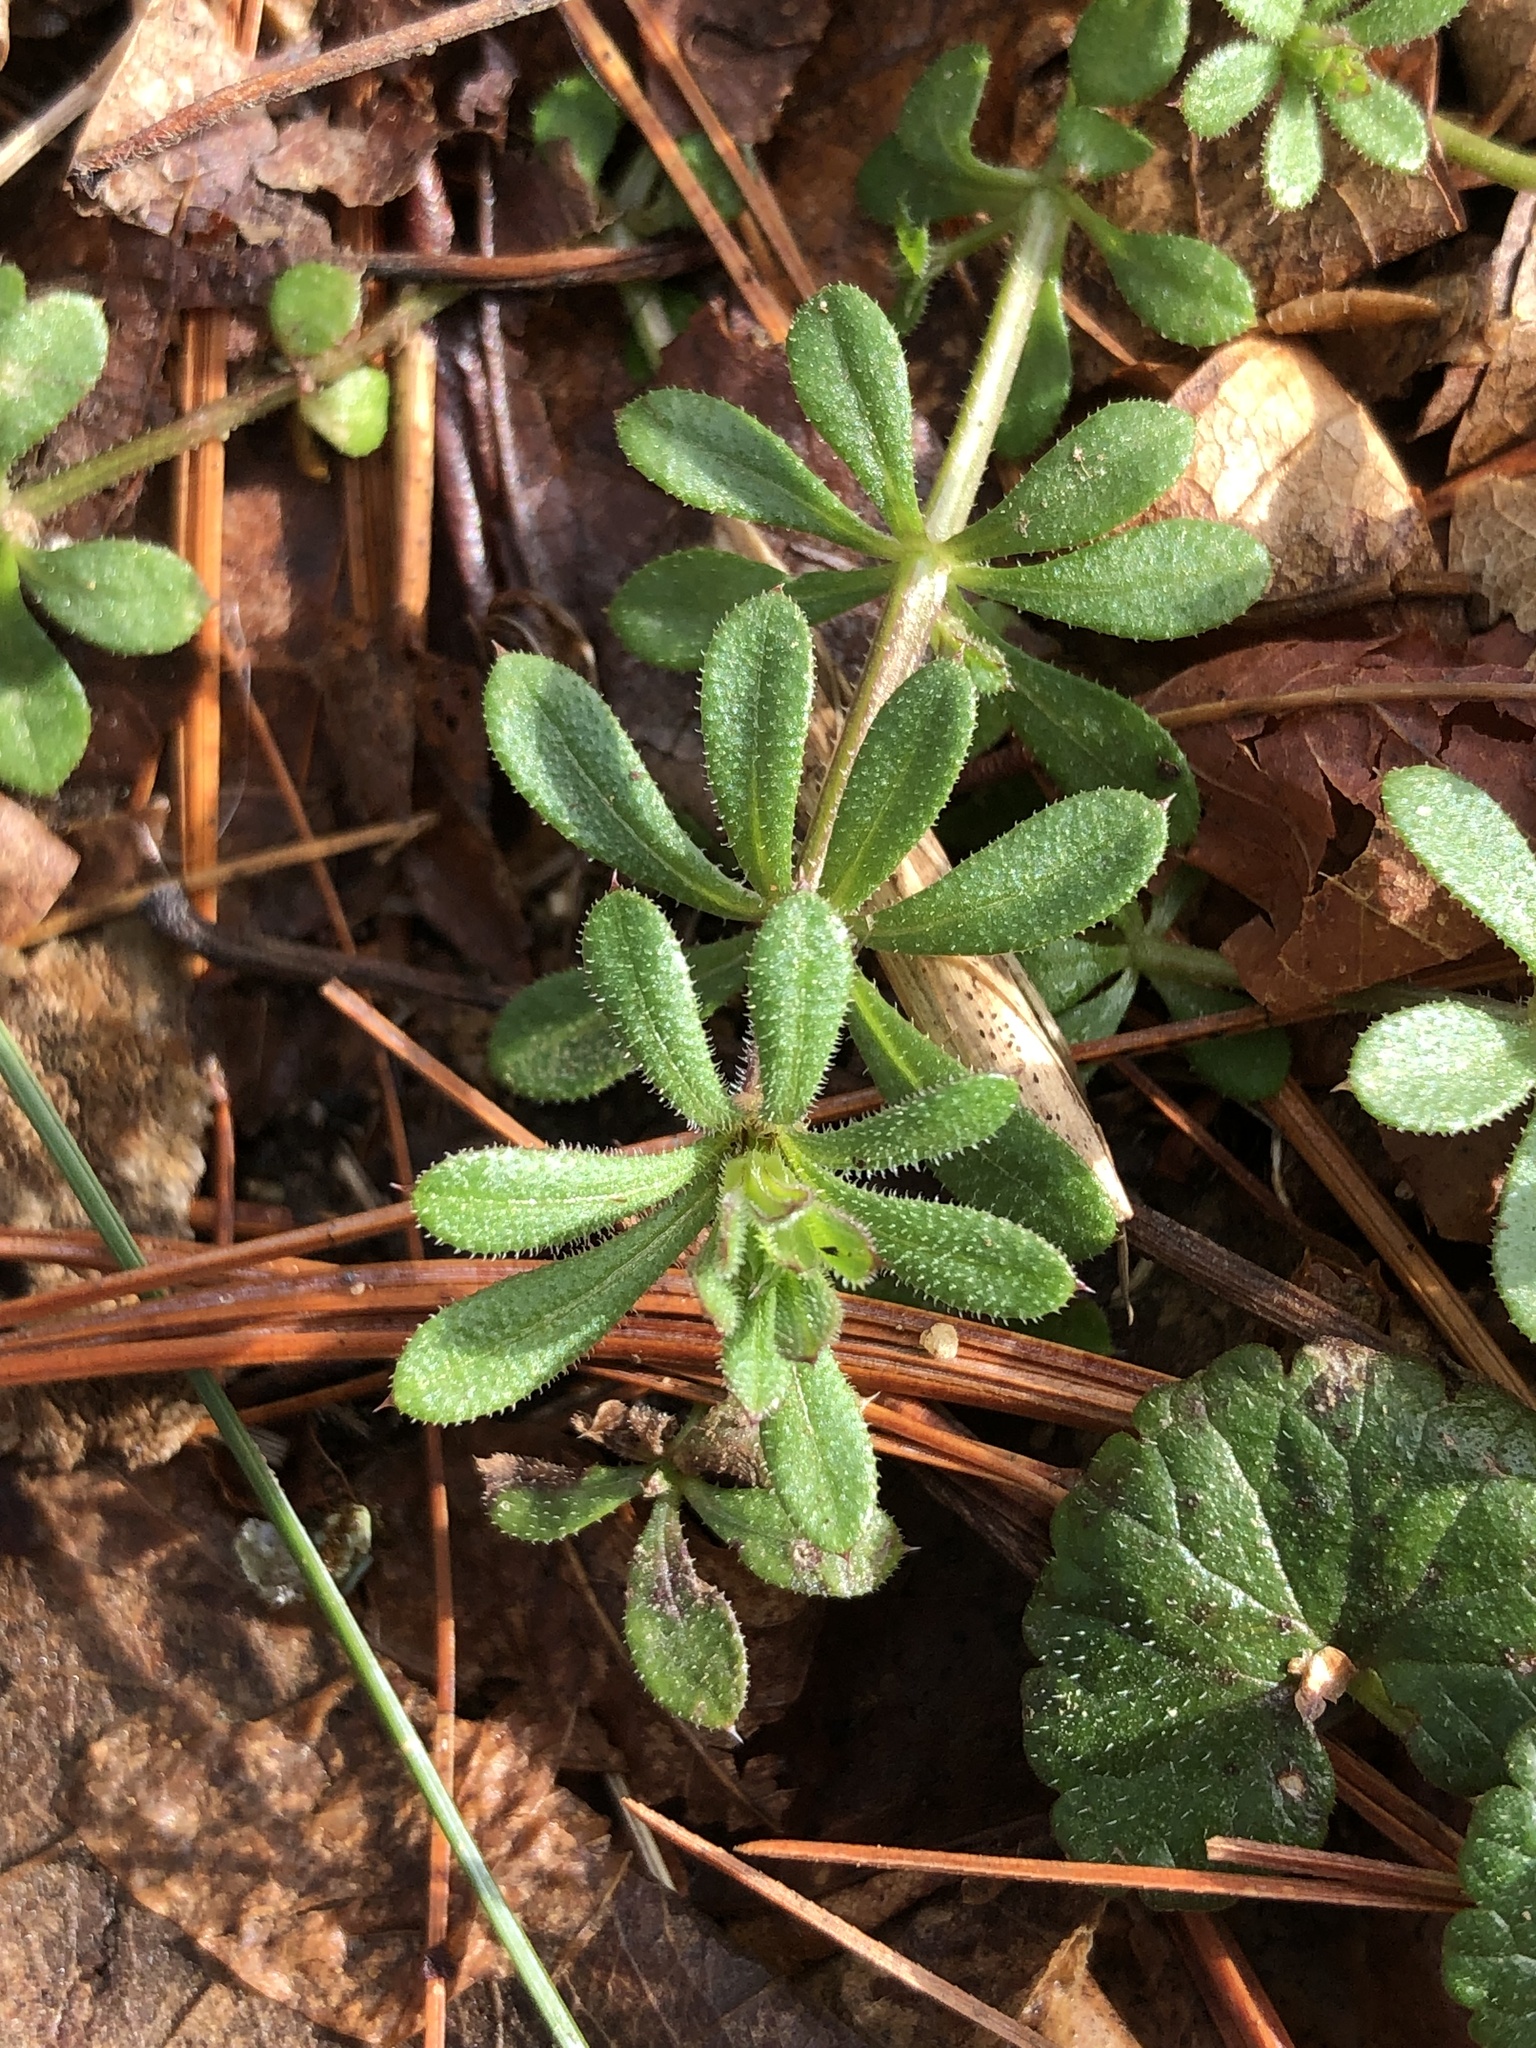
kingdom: Plantae
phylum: Tracheophyta
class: Magnoliopsida
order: Gentianales
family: Rubiaceae
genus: Galium
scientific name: Galium aparine
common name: Cleavers
